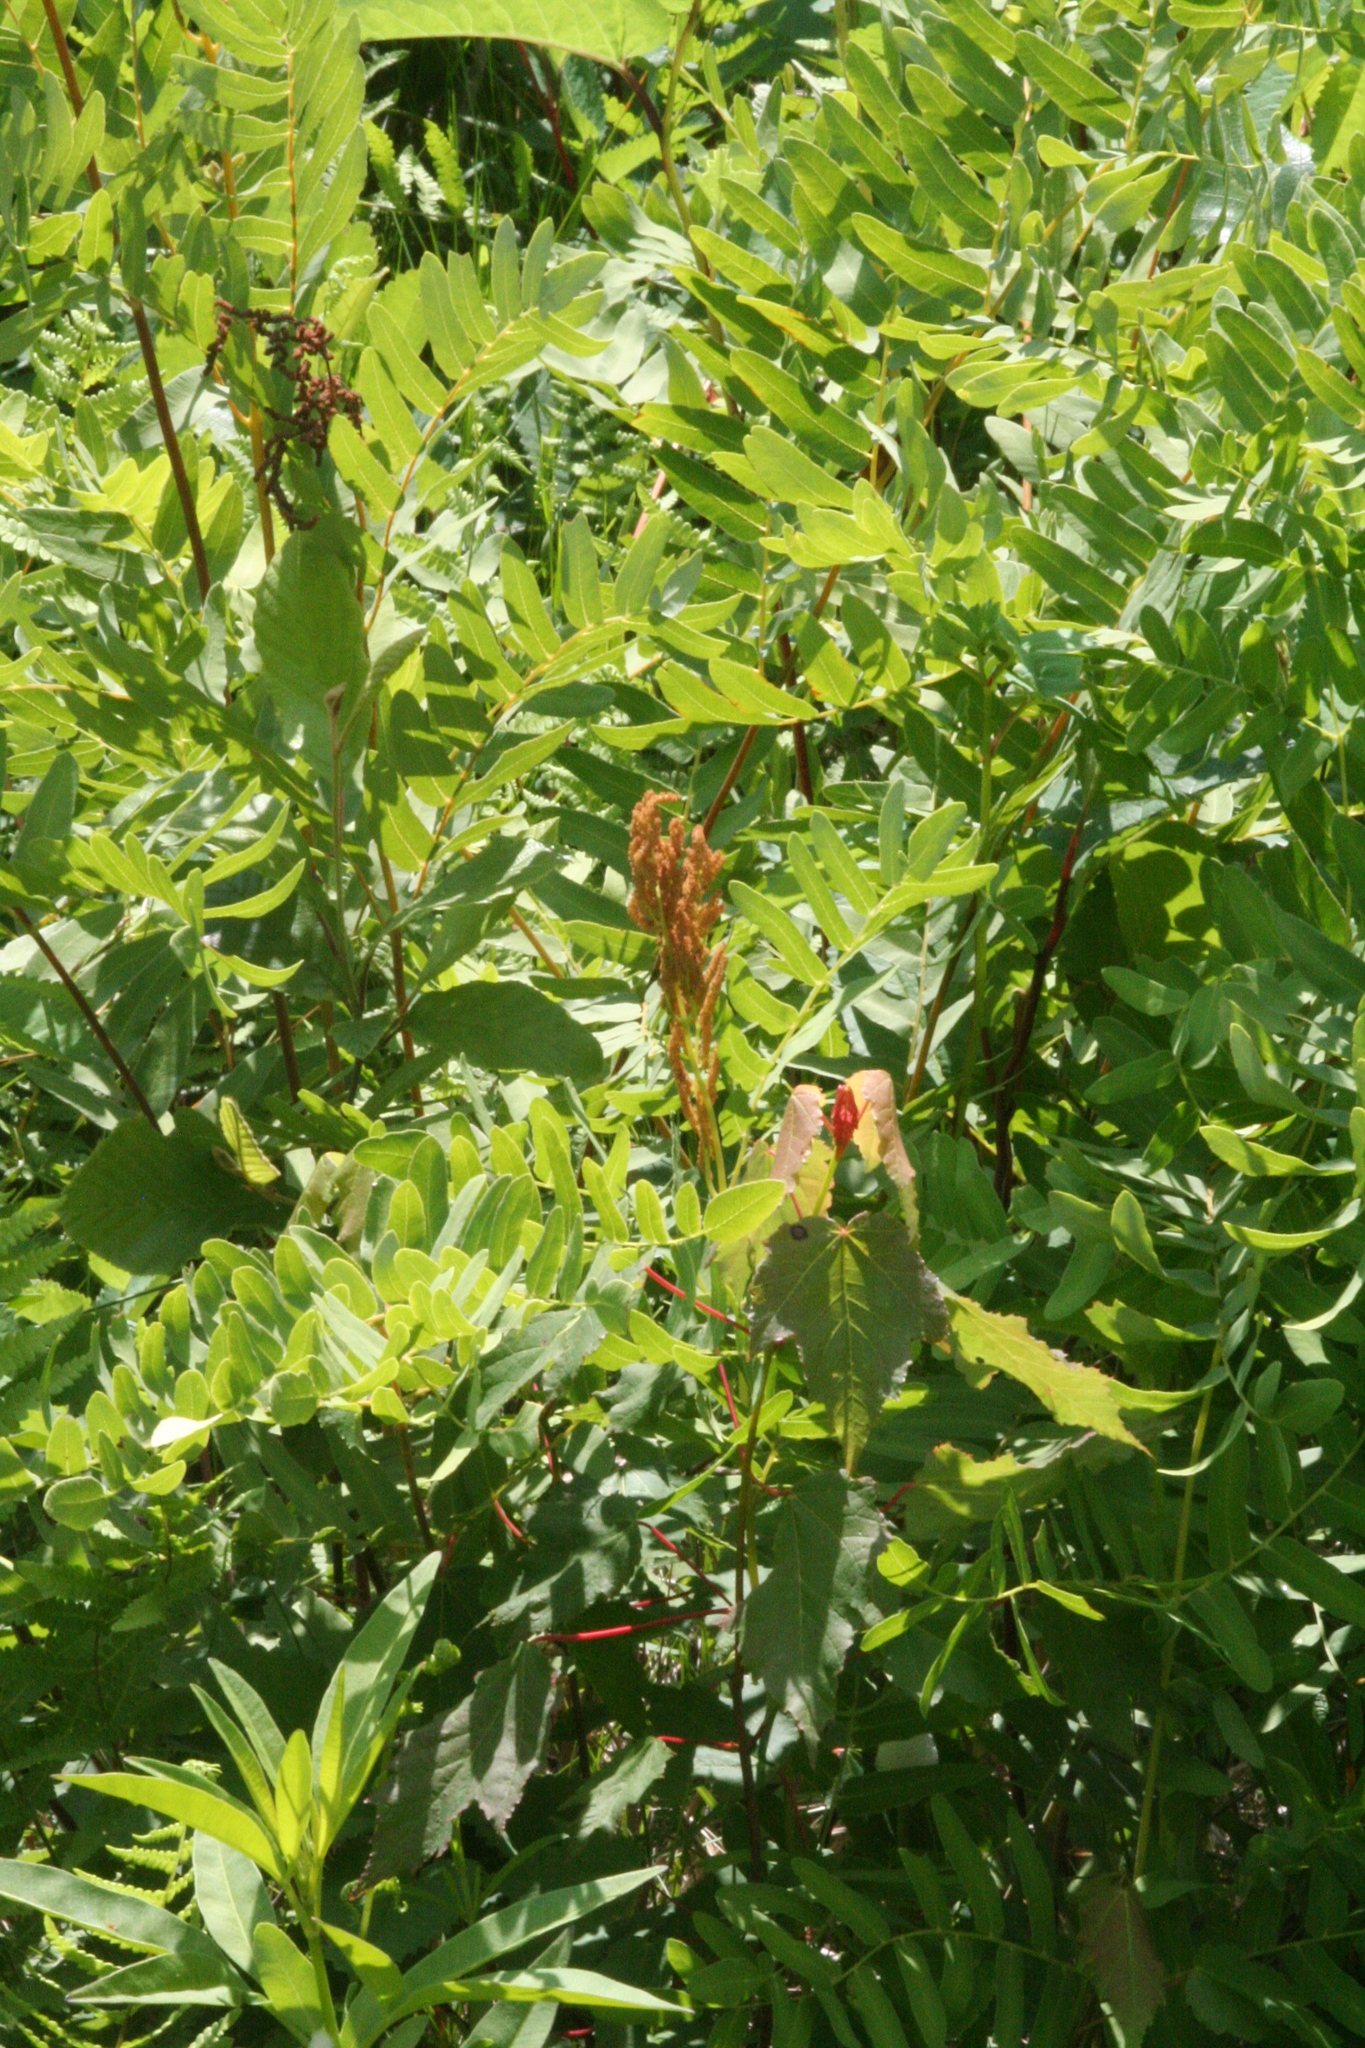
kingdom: Plantae
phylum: Tracheophyta
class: Polypodiopsida
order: Osmundales
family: Osmundaceae
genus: Osmunda
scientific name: Osmunda spectabilis
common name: American royal fern
